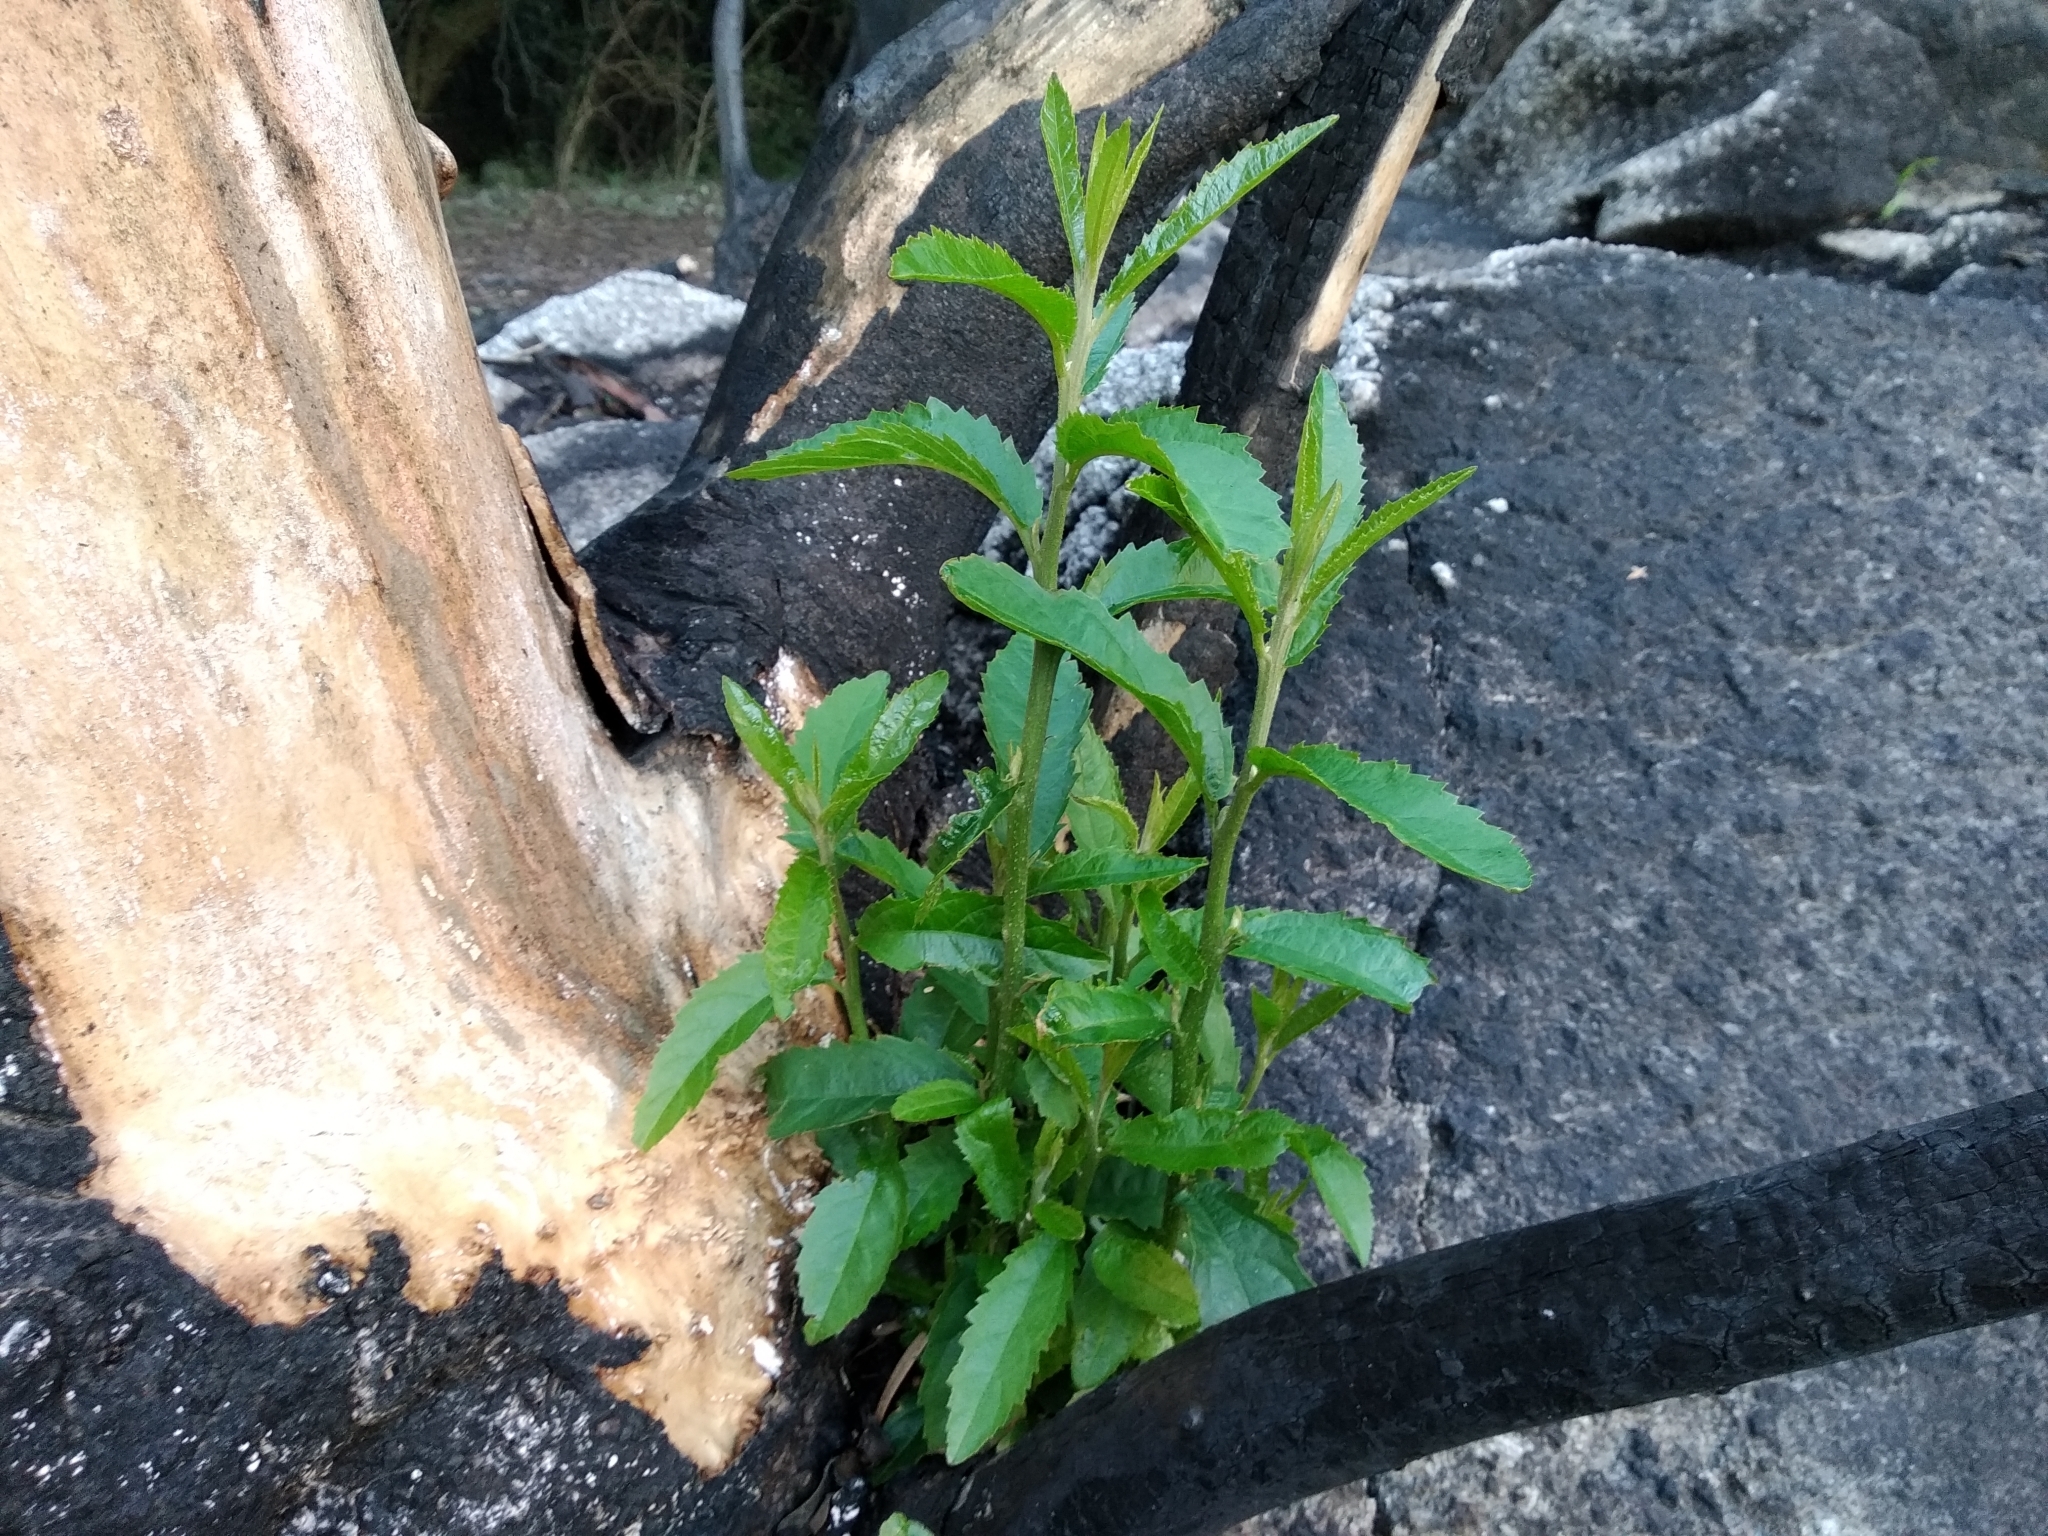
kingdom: Plantae
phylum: Tracheophyta
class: Magnoliopsida
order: Malpighiales
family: Achariaceae
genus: Kiggelaria
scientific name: Kiggelaria africana
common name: Wild peach
